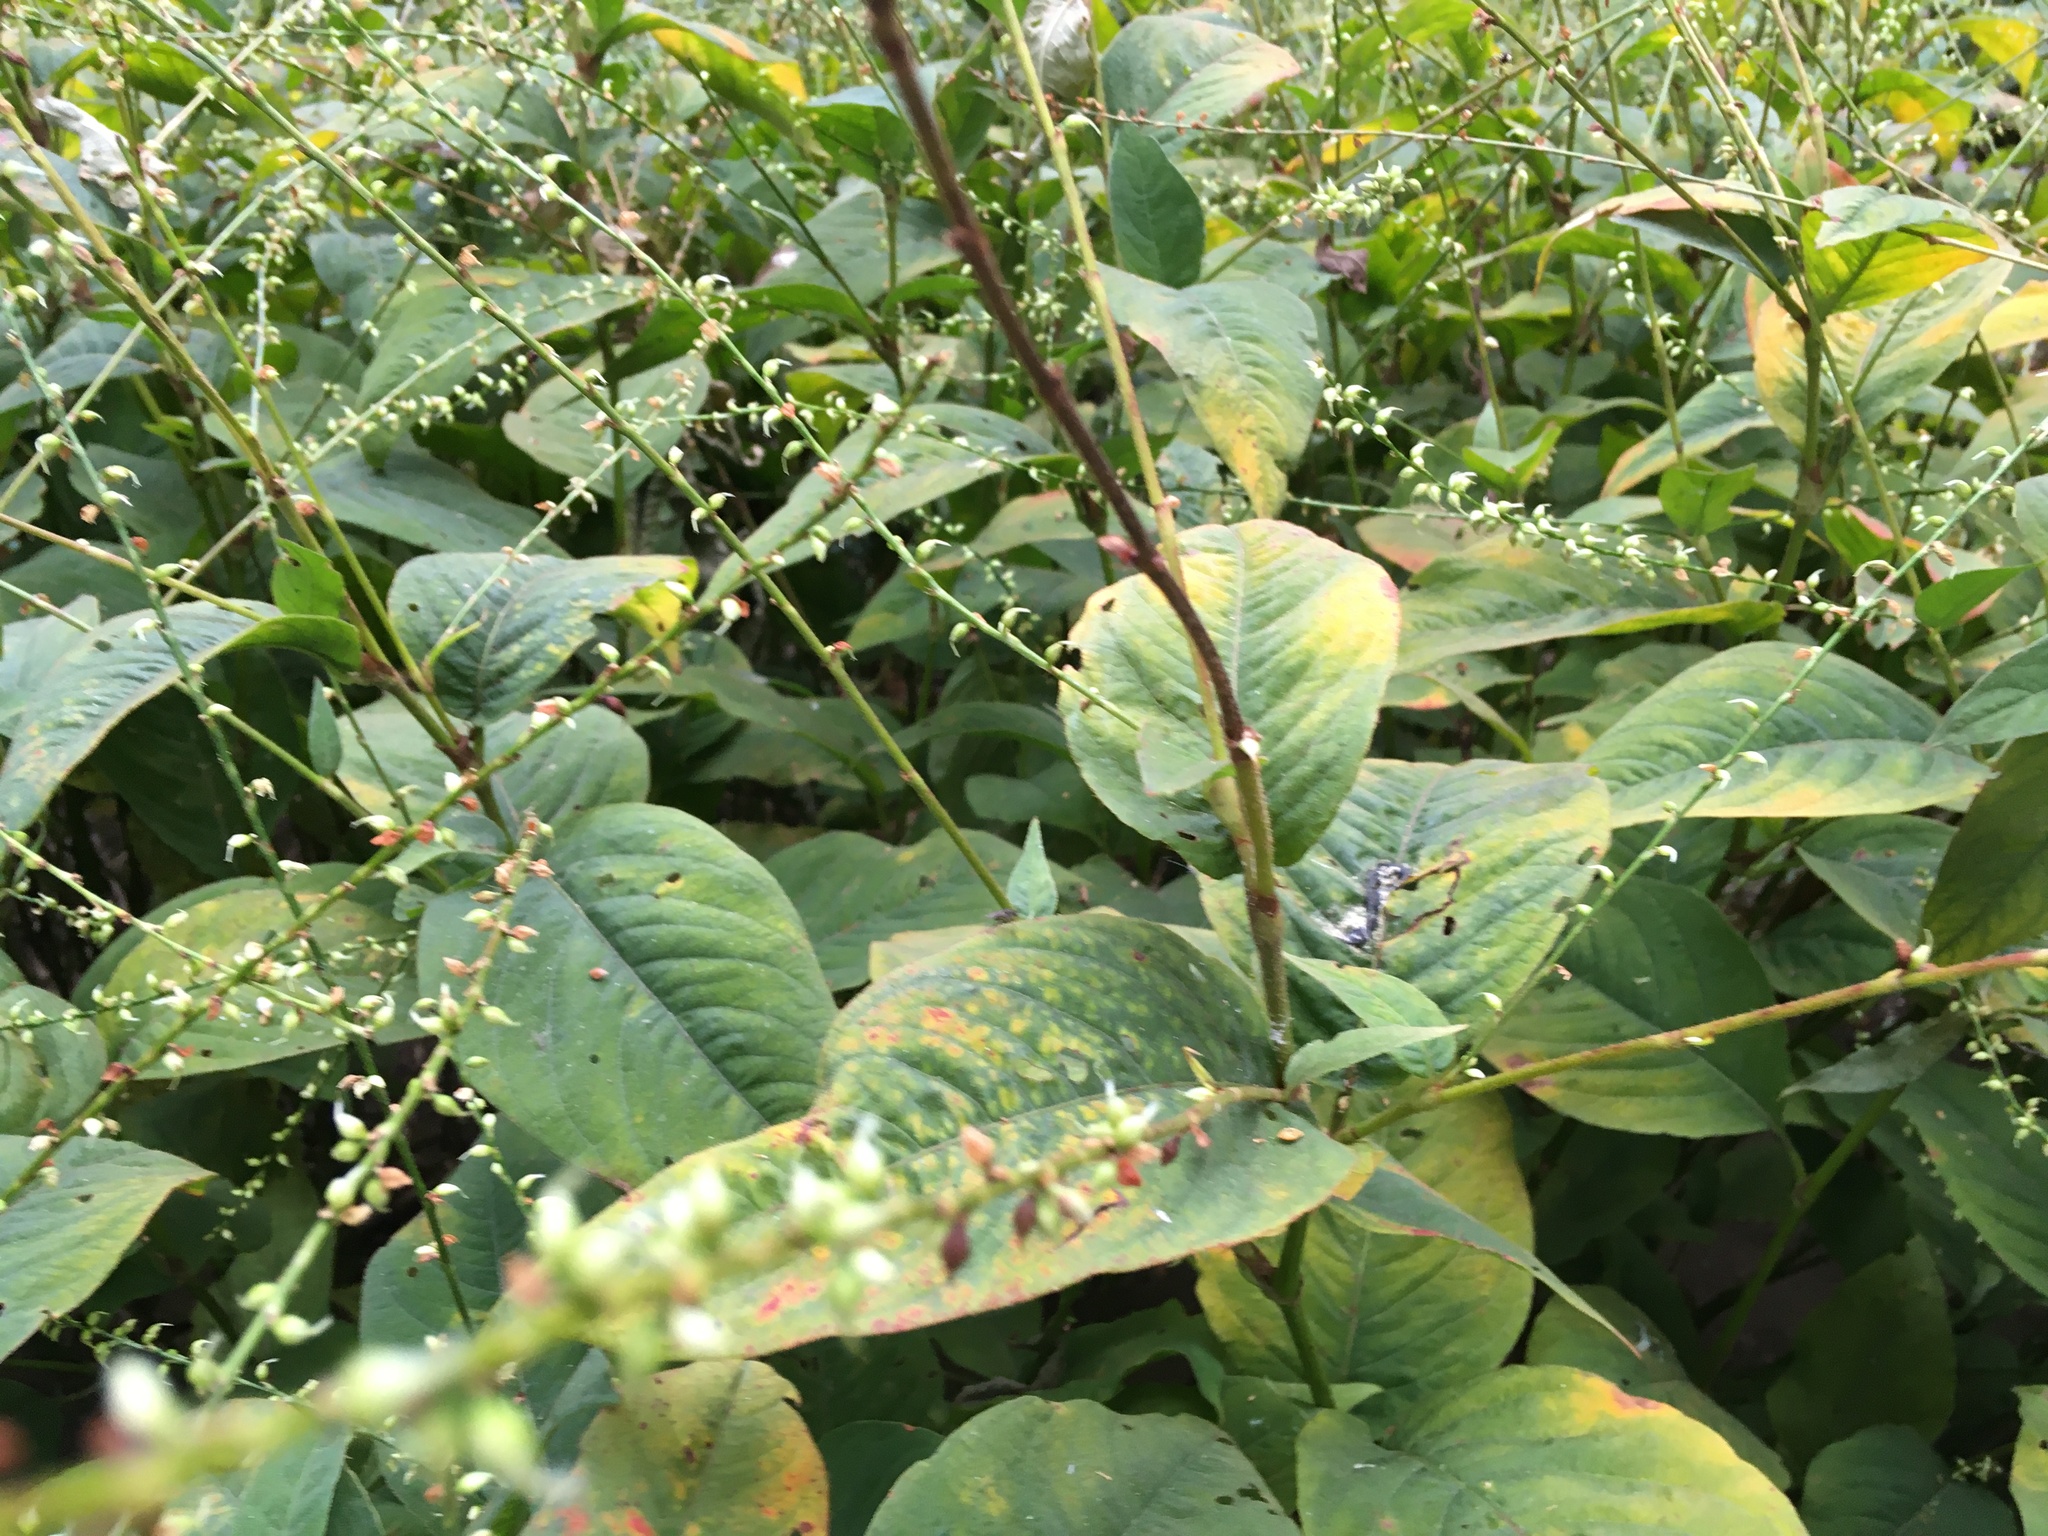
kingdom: Plantae
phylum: Tracheophyta
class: Magnoliopsida
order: Caryophyllales
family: Polygonaceae
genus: Persicaria
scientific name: Persicaria virginiana
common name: Jumpseed
